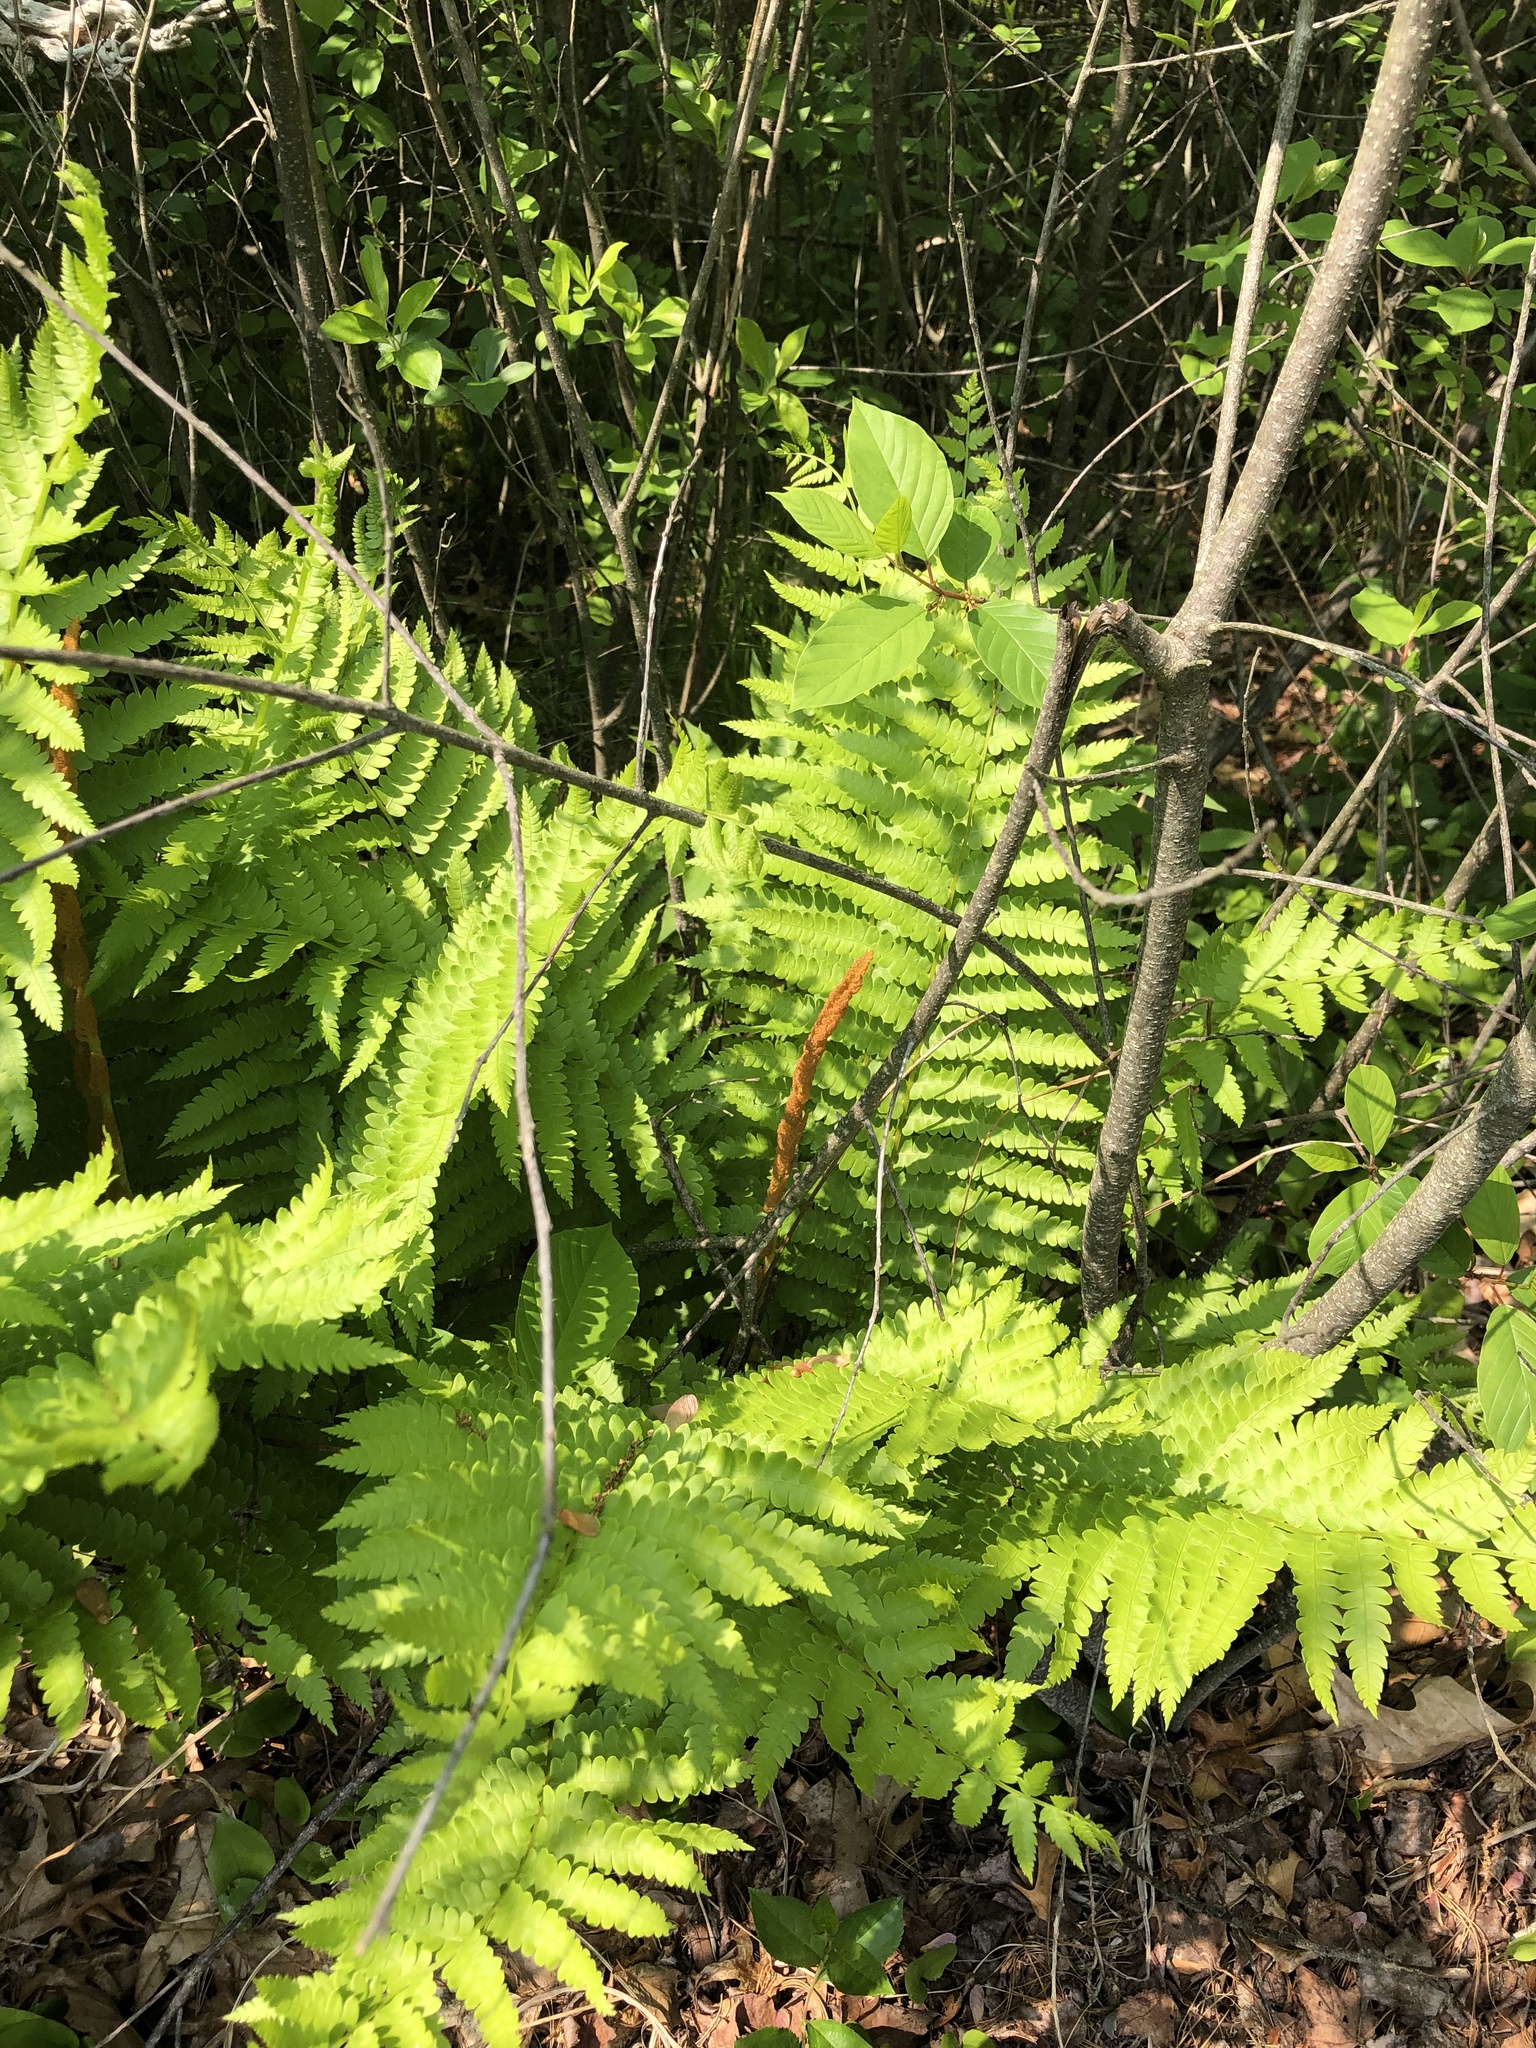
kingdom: Plantae
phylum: Tracheophyta
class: Polypodiopsida
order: Osmundales
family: Osmundaceae
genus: Osmundastrum
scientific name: Osmundastrum cinnamomeum
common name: Cinnamon fern
